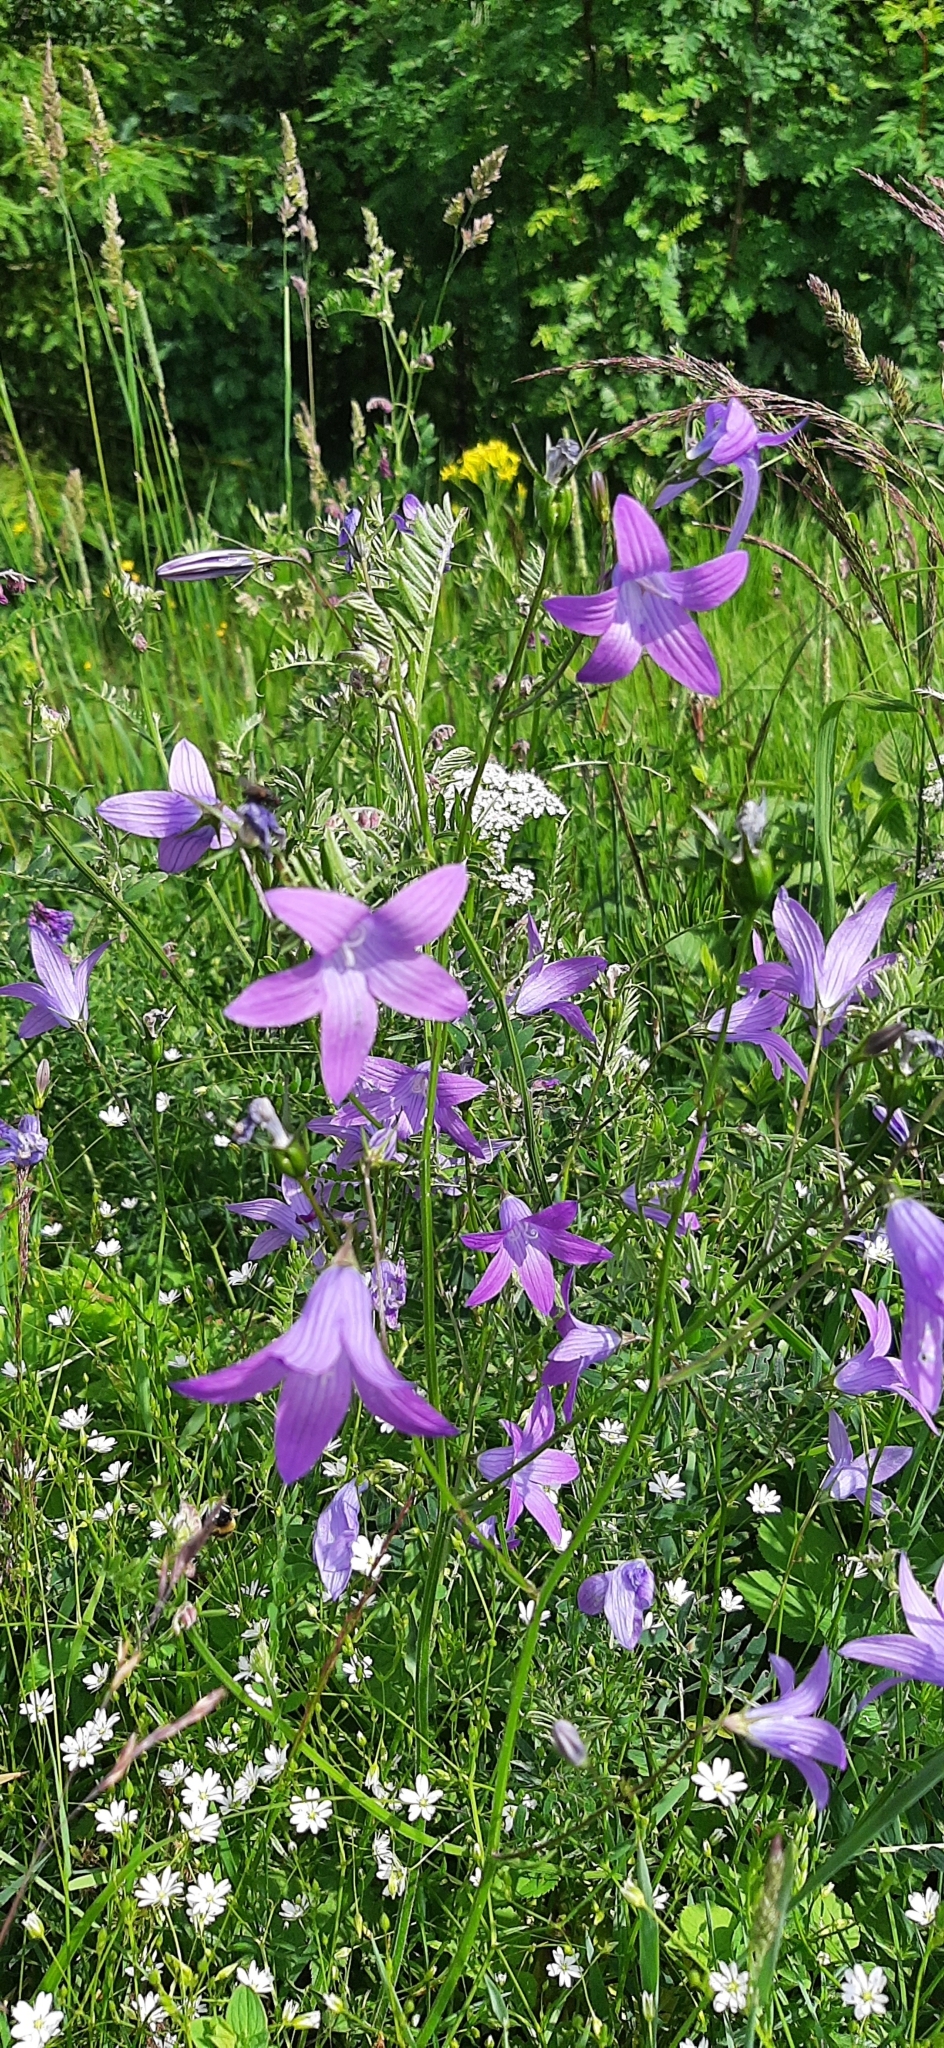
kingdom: Plantae
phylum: Tracheophyta
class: Magnoliopsida
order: Asterales
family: Campanulaceae
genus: Campanula
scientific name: Campanula patula
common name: Spreading bellflower
